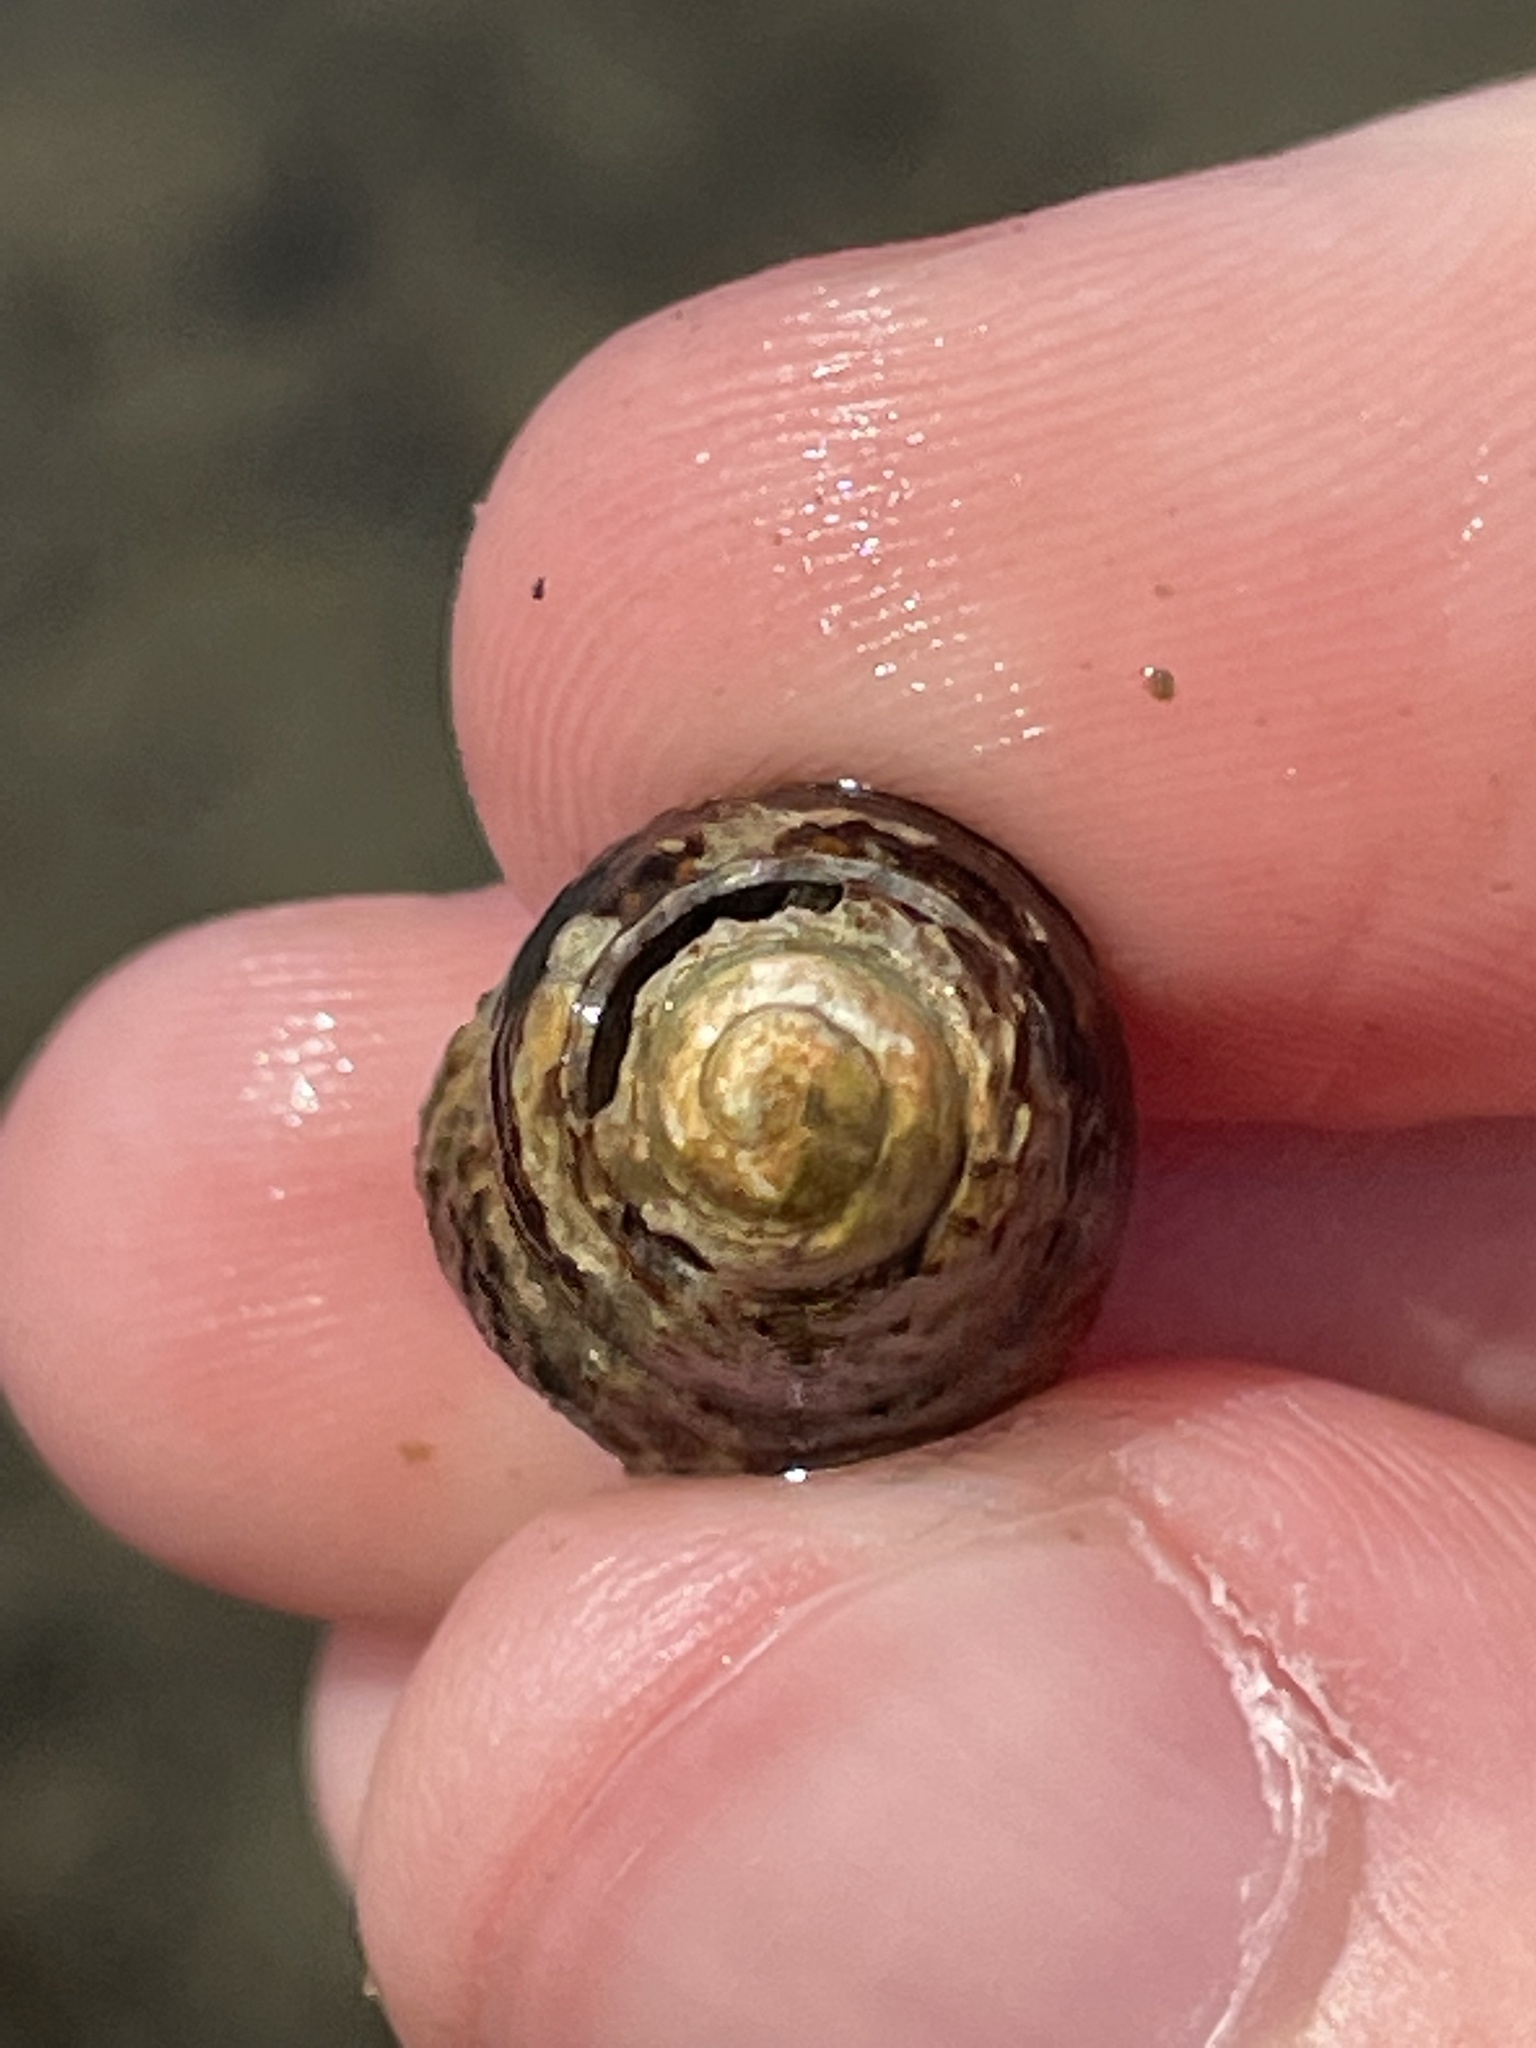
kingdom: Animalia
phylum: Mollusca
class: Gastropoda
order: Neogastropoda
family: Nassariidae
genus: Ilyanassa
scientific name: Ilyanassa obsoleta
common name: Eastern mudsnail
